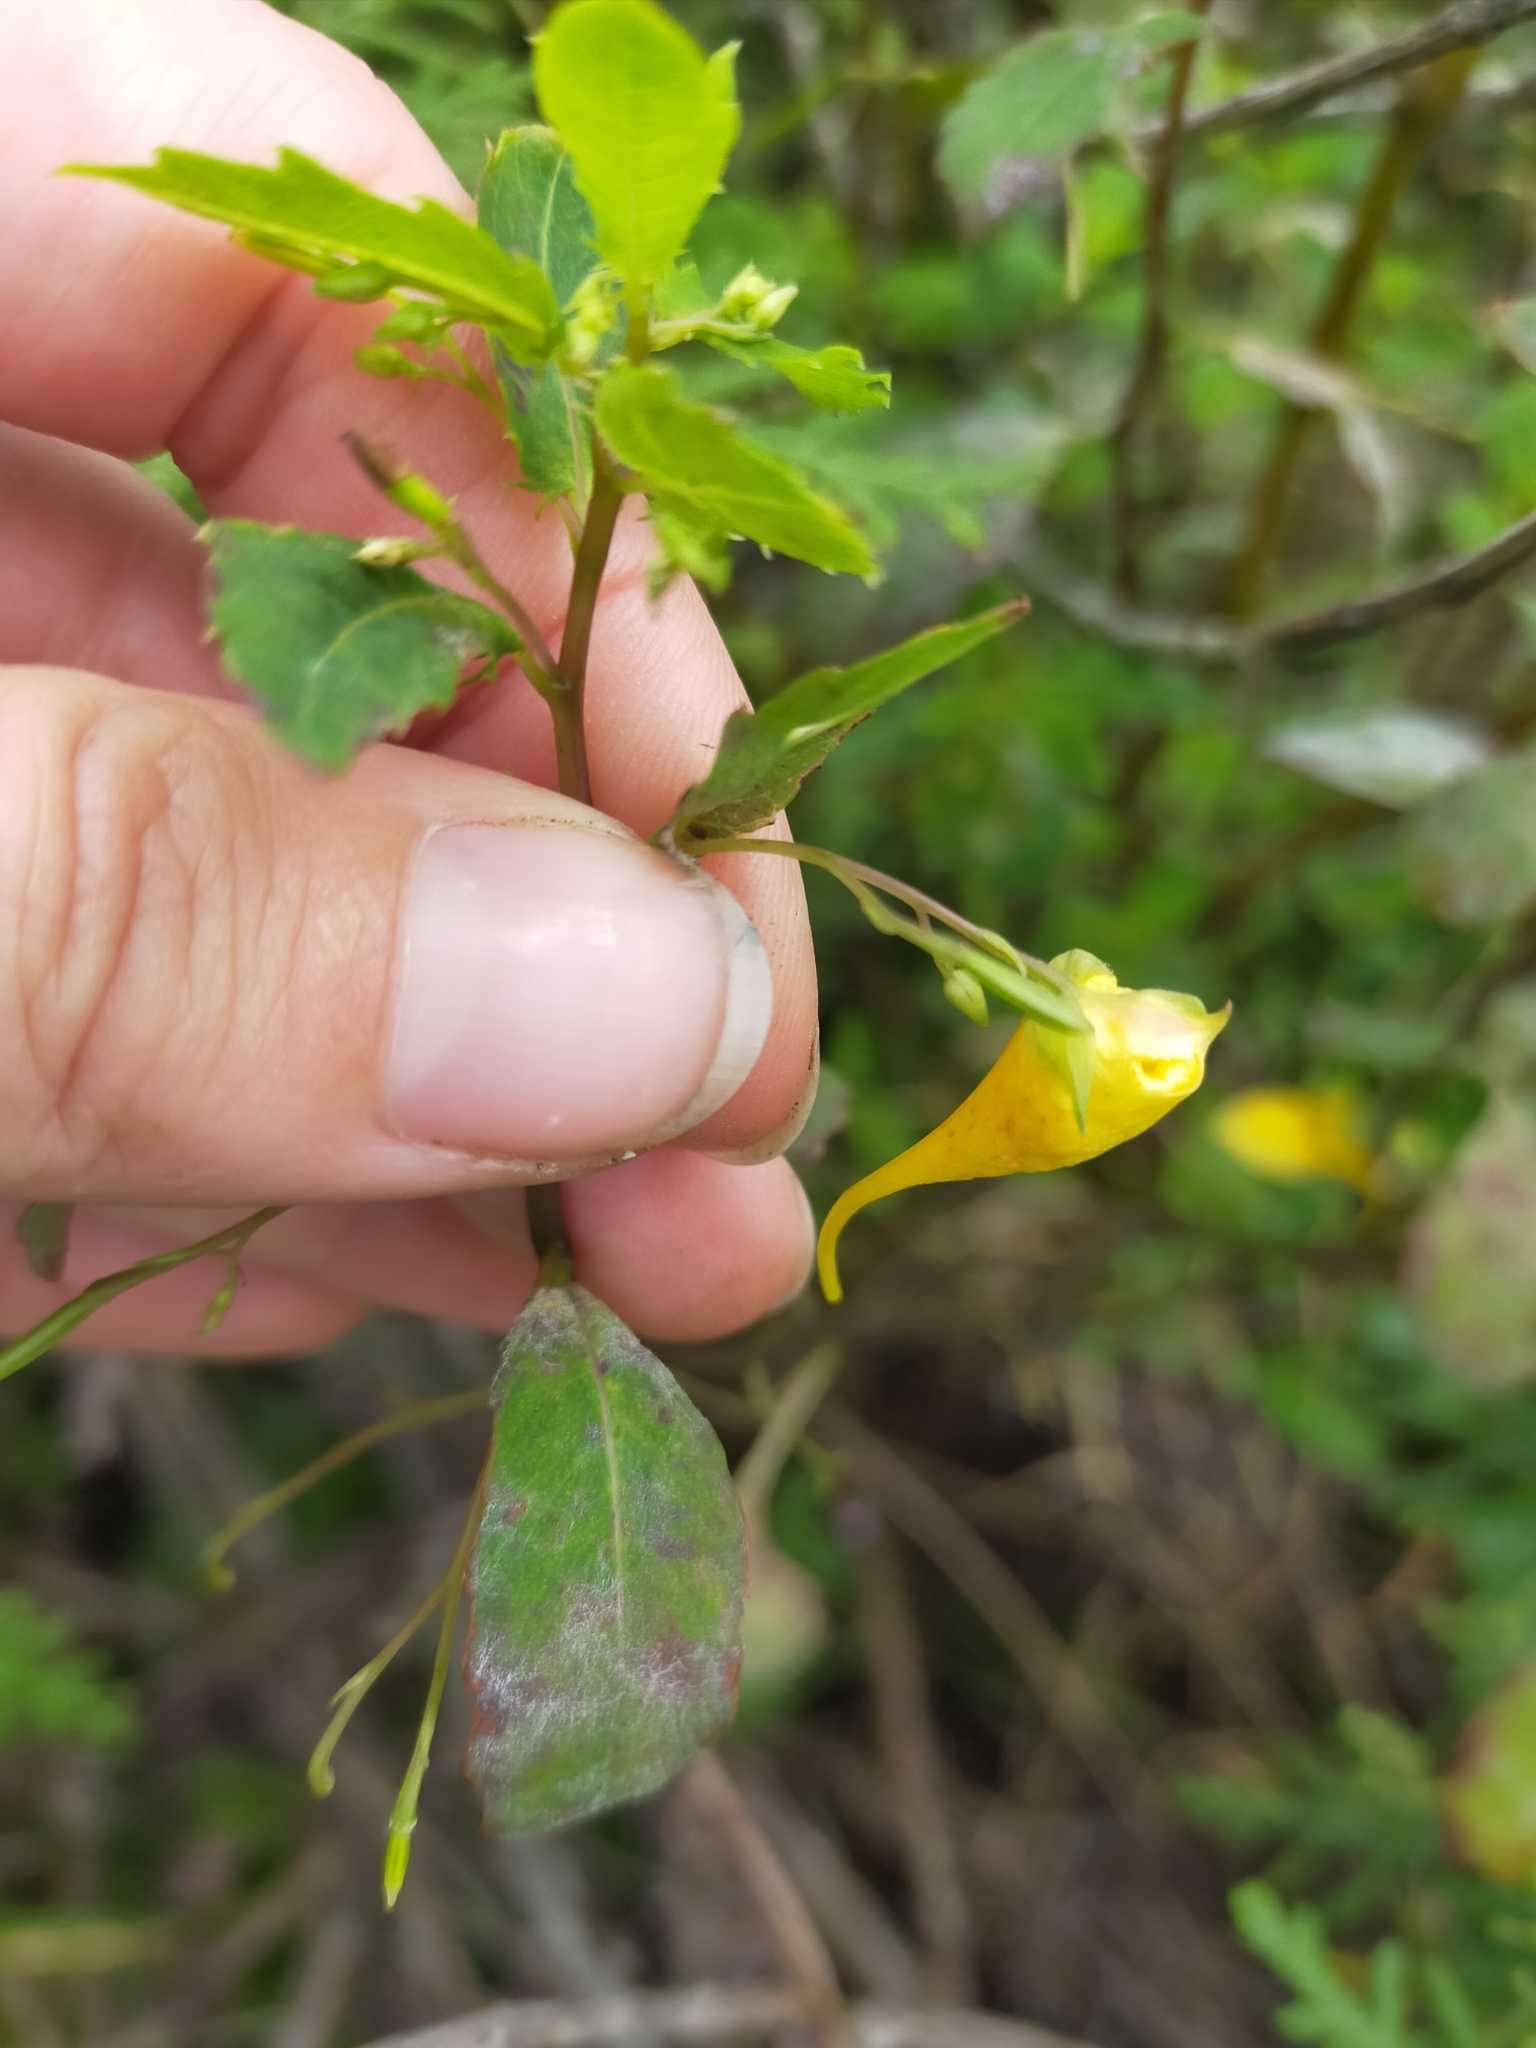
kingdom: Plantae
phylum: Tracheophyta
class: Magnoliopsida
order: Ericales
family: Balsaminaceae
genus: Impatiens
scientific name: Impatiens noli-tangere
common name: Touch-me-not balsam
